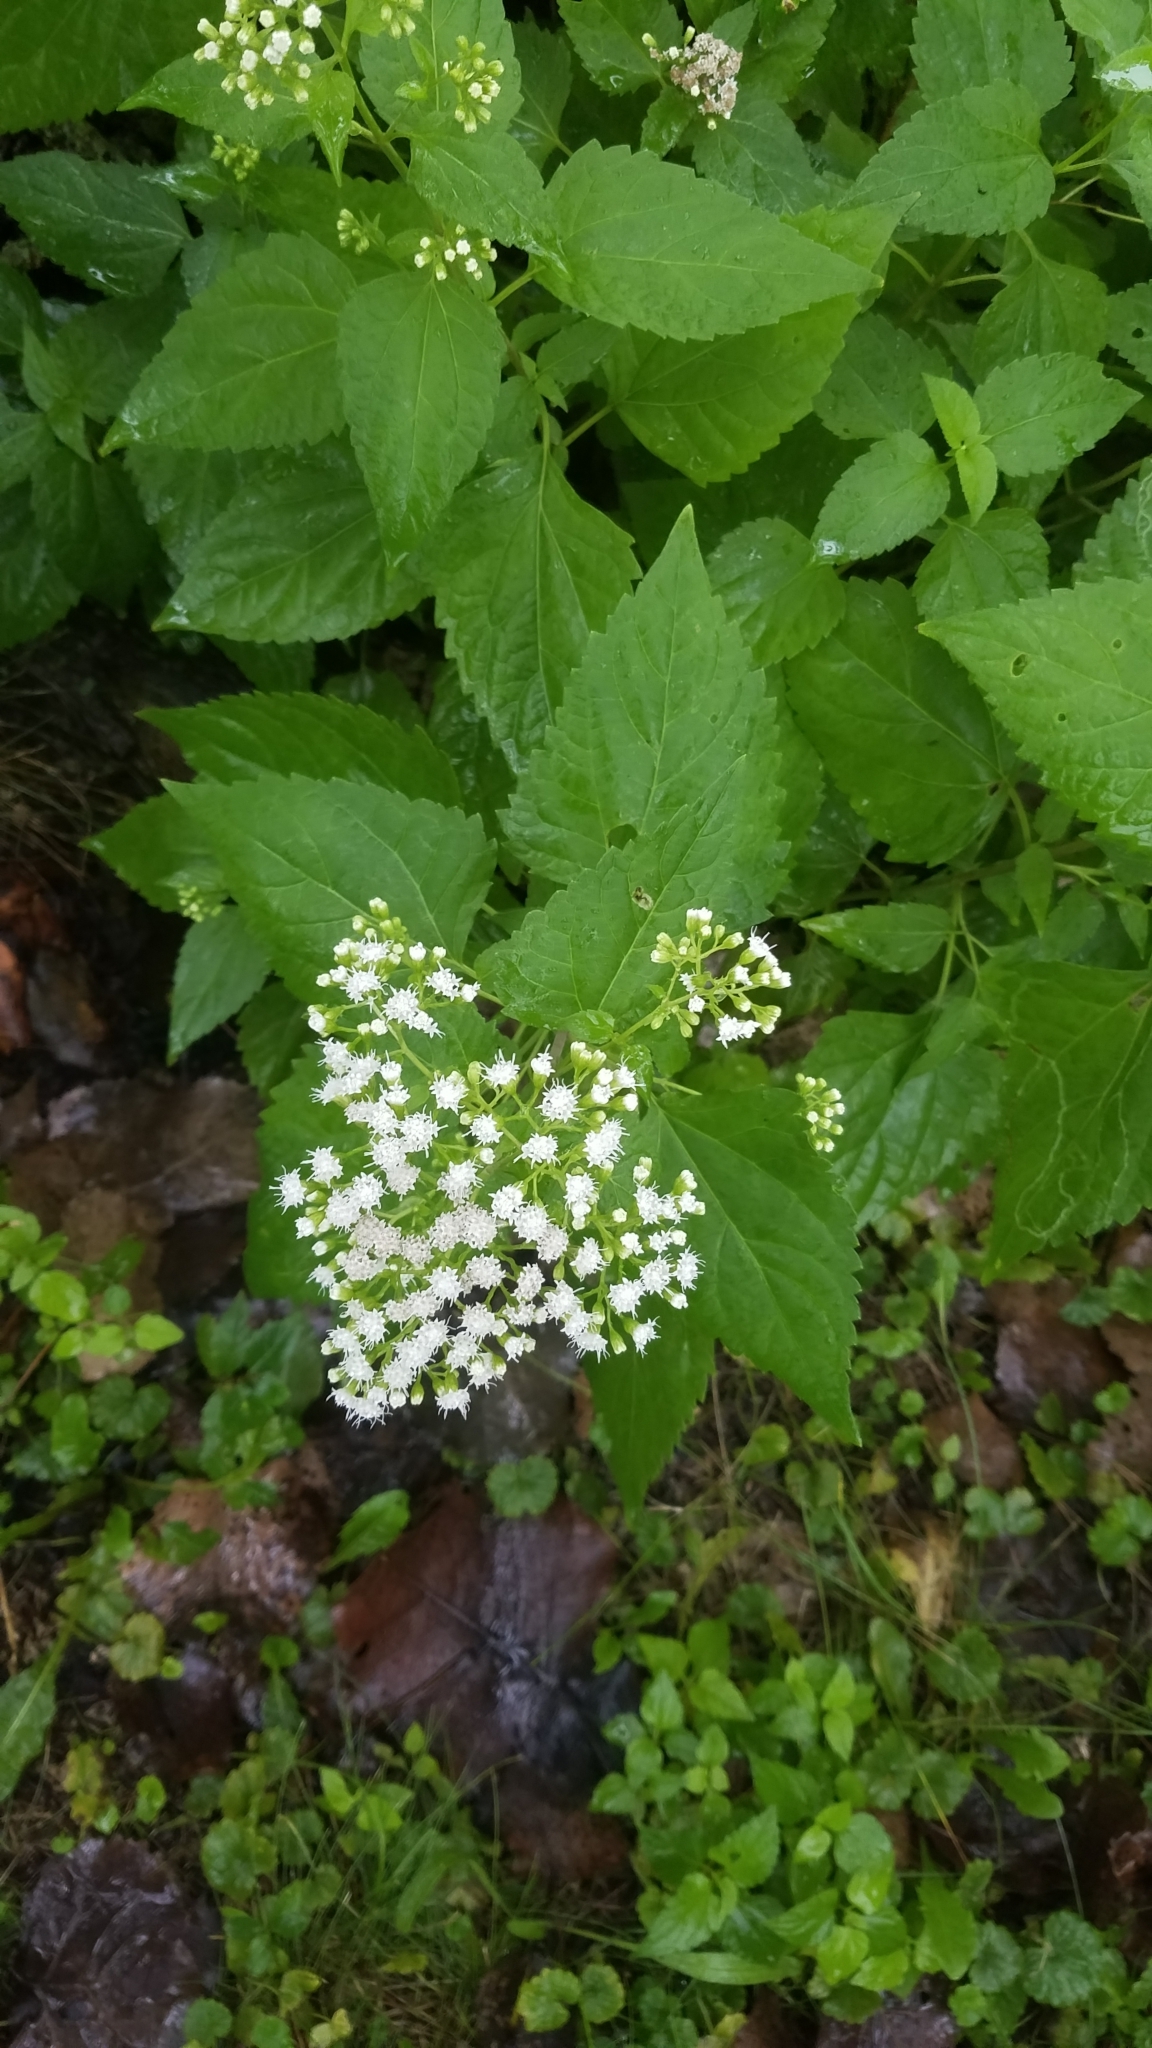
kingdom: Plantae
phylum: Tracheophyta
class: Magnoliopsida
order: Asterales
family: Asteraceae
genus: Ageratina
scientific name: Ageratina altissima
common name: White snakeroot
